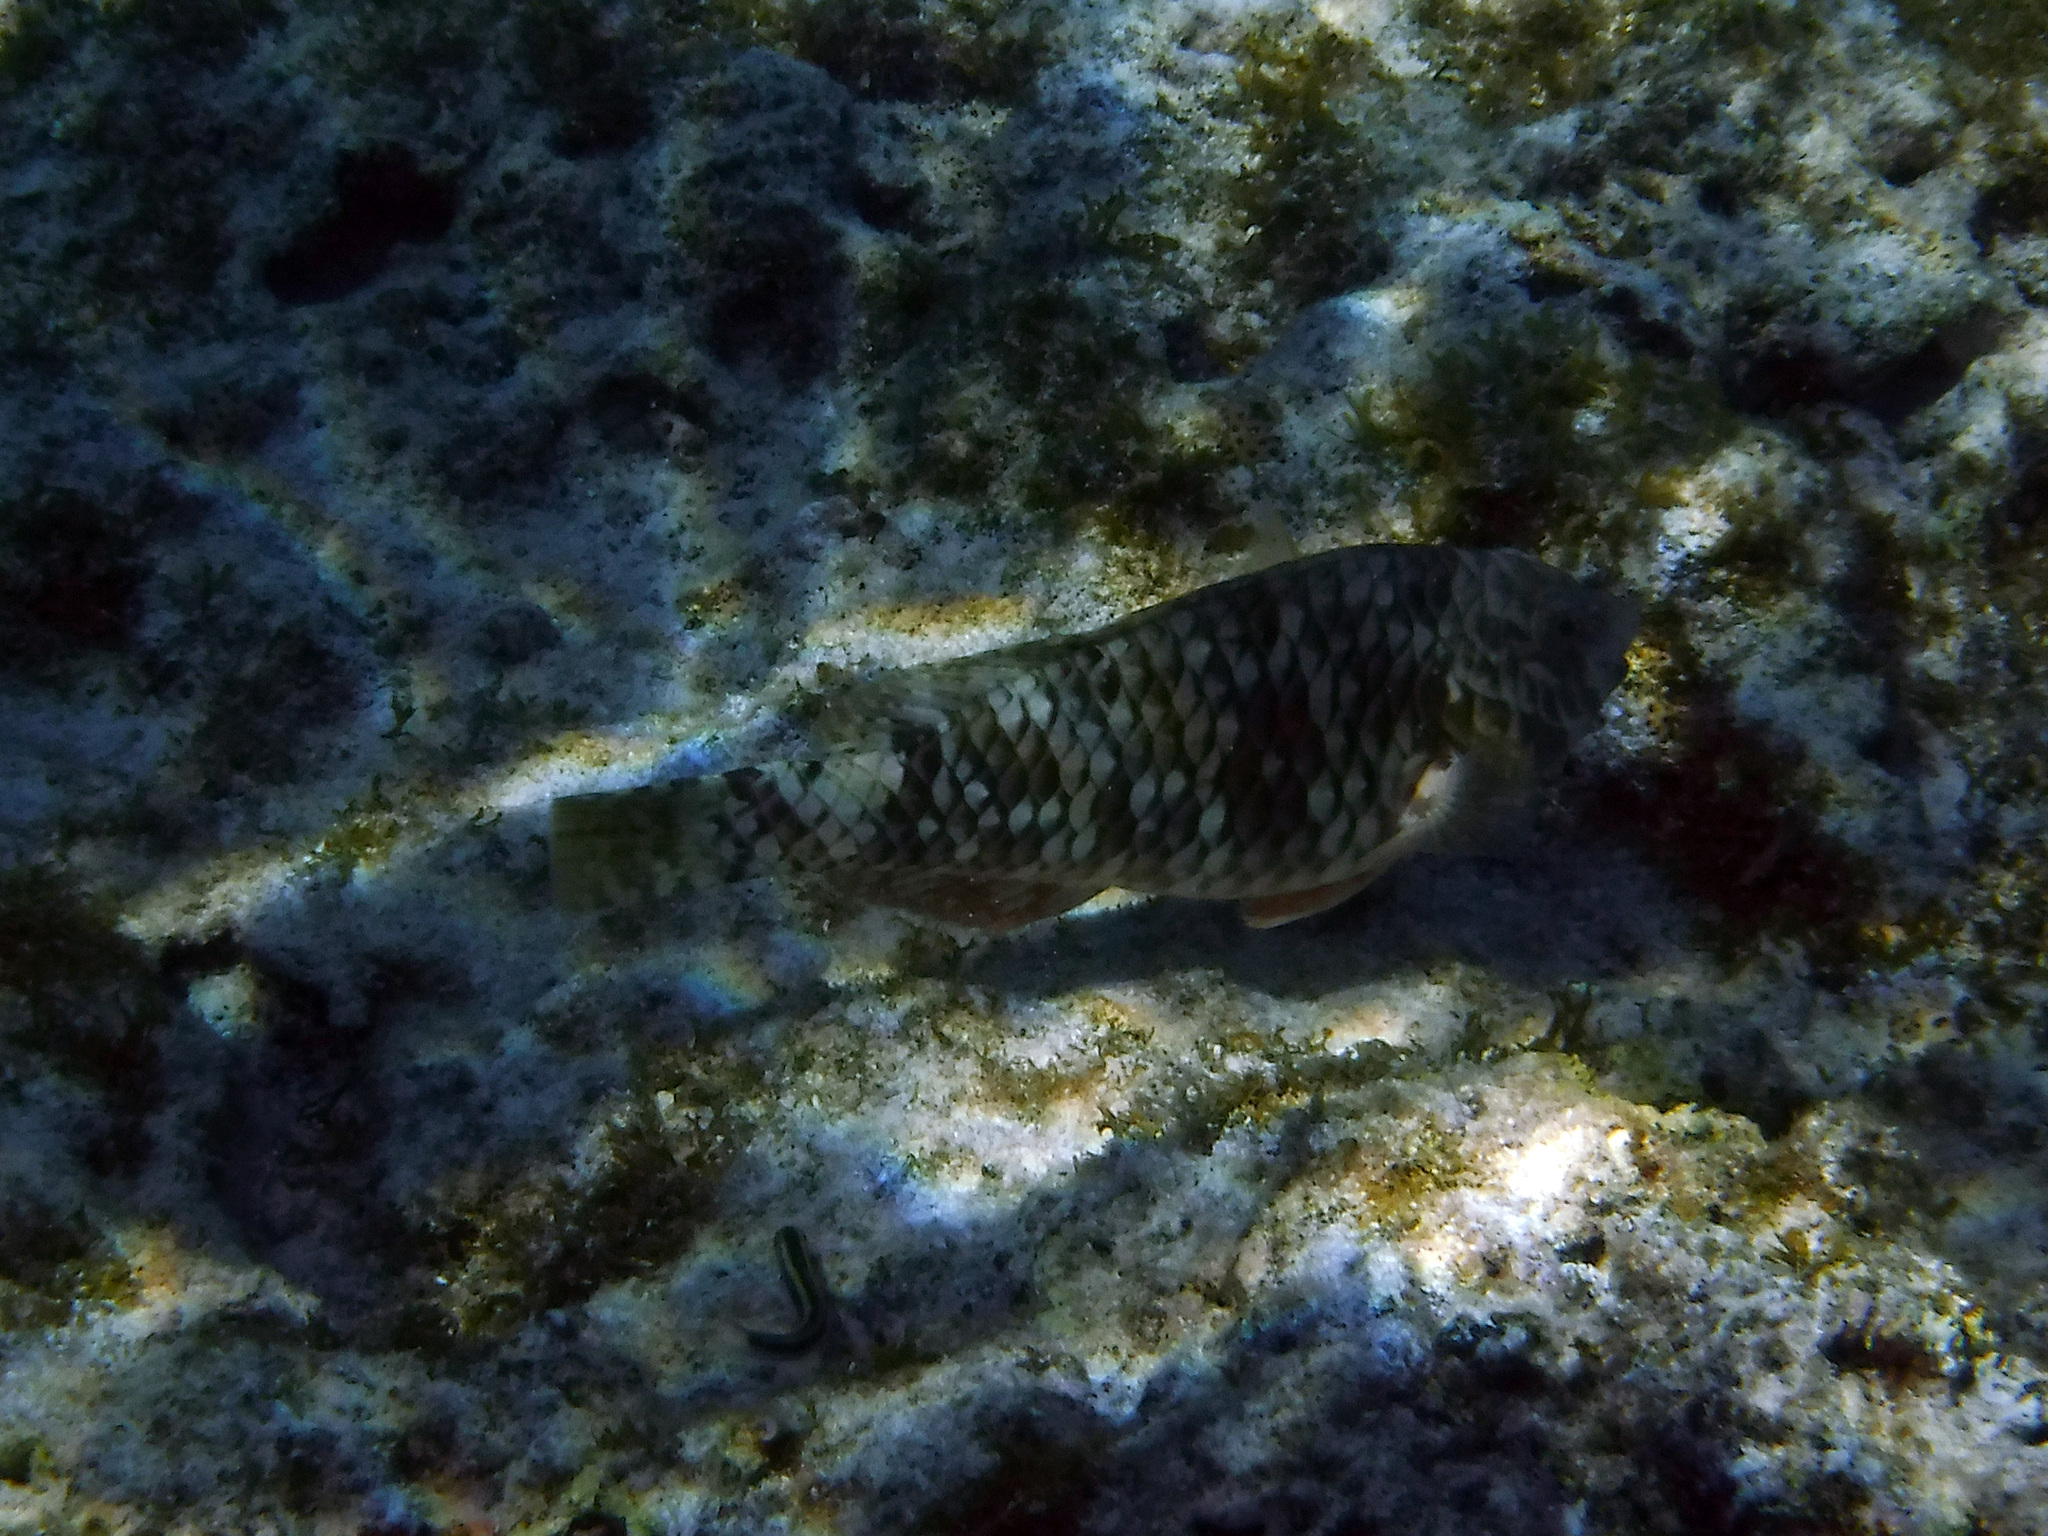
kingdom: Animalia
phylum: Chordata
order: Perciformes
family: Scaridae
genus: Sparisoma
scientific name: Sparisoma rubripinne
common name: Redfin parrotfish
